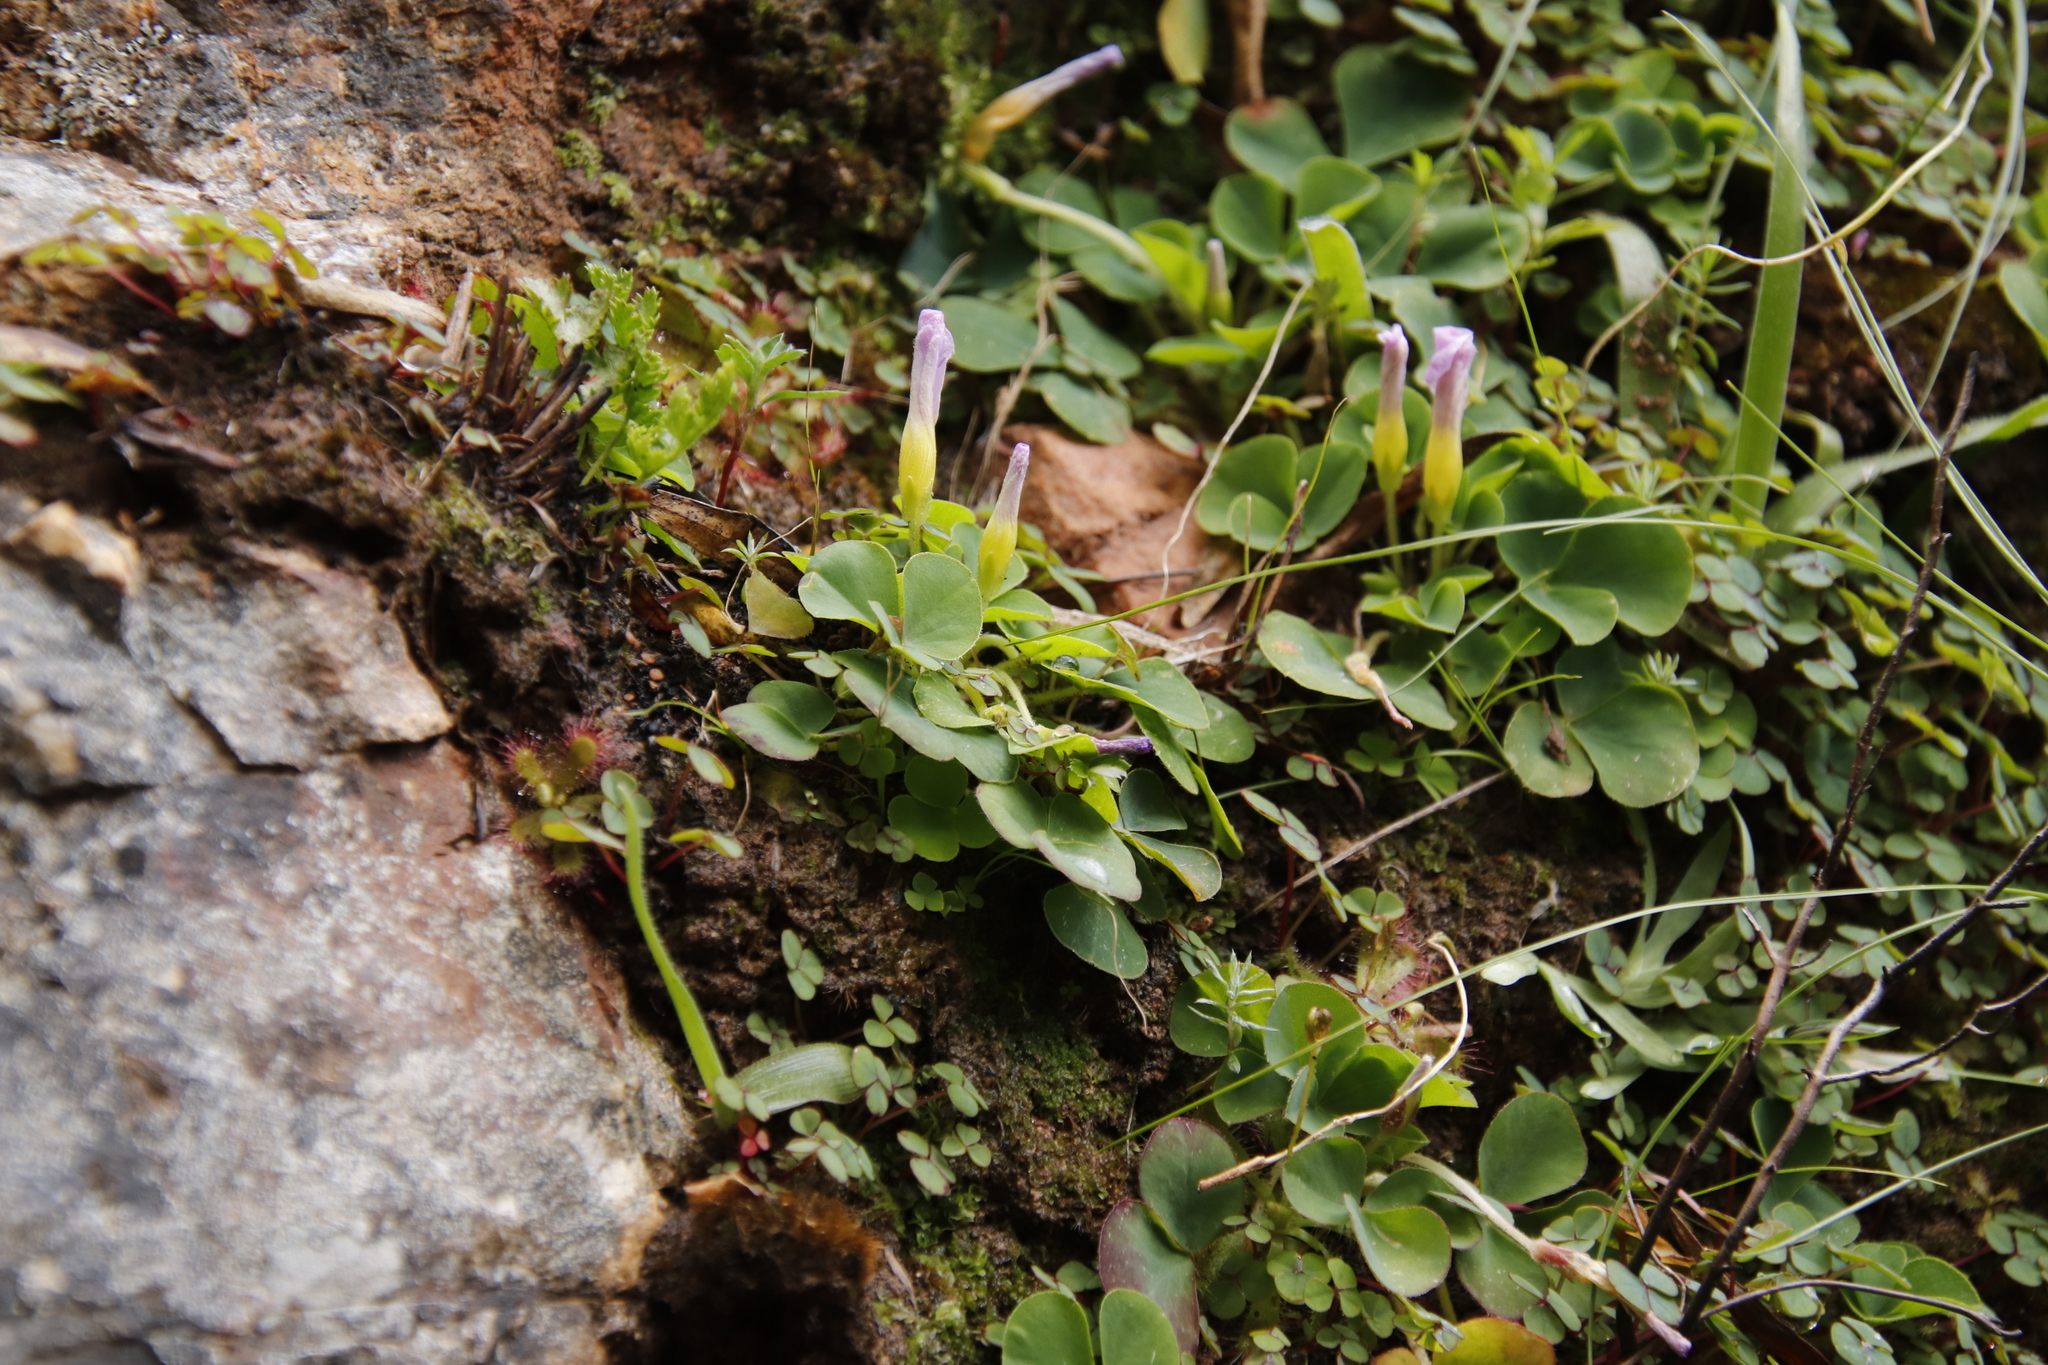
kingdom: Plantae
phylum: Tracheophyta
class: Magnoliopsida
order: Oxalidales
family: Oxalidaceae
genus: Oxalis
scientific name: Oxalis purpurea
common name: Purple woodsorrel
